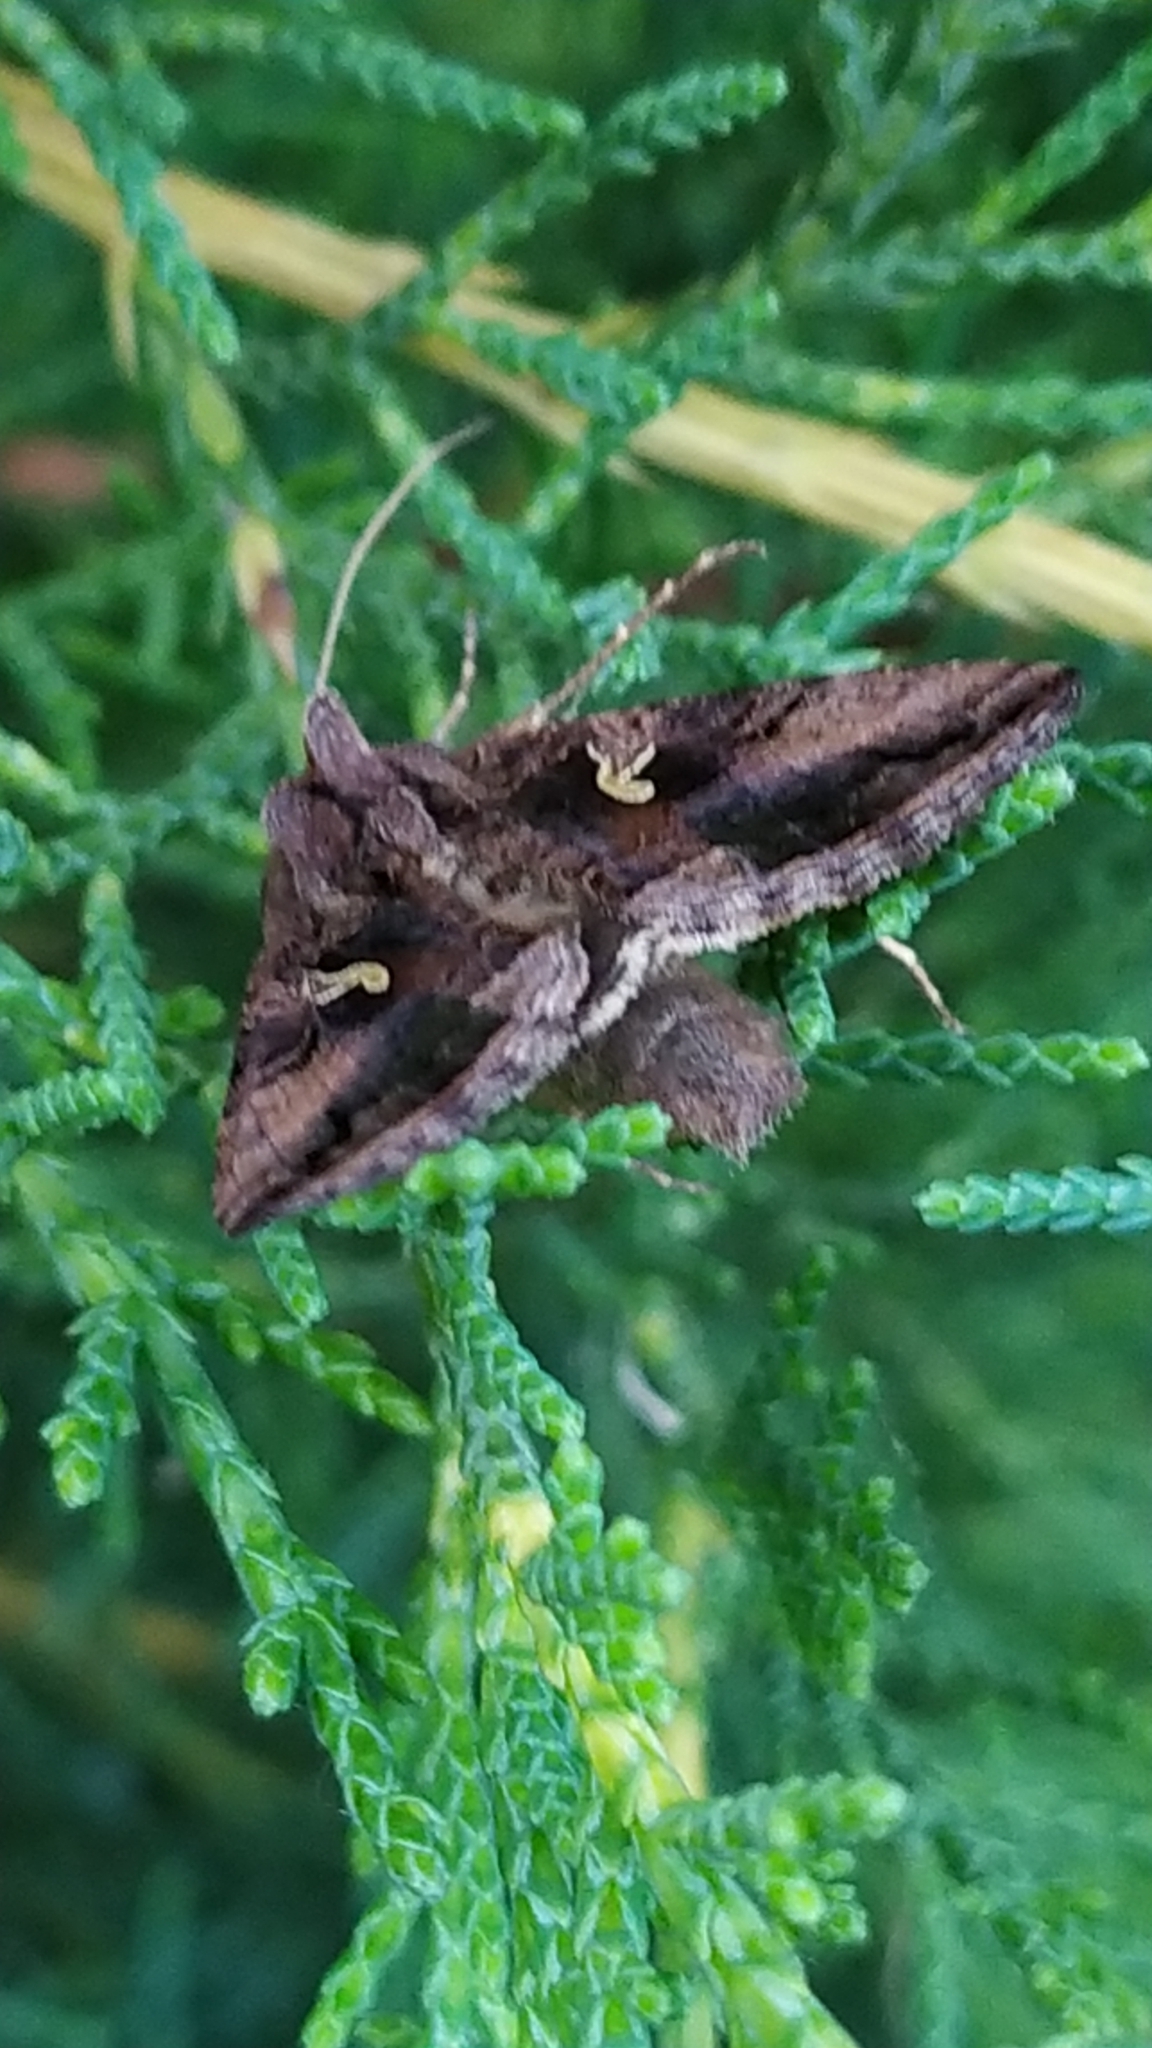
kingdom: Animalia
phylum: Arthropoda
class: Insecta
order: Lepidoptera
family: Noctuidae
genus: Autographa
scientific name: Autographa gamma
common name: Silver y
